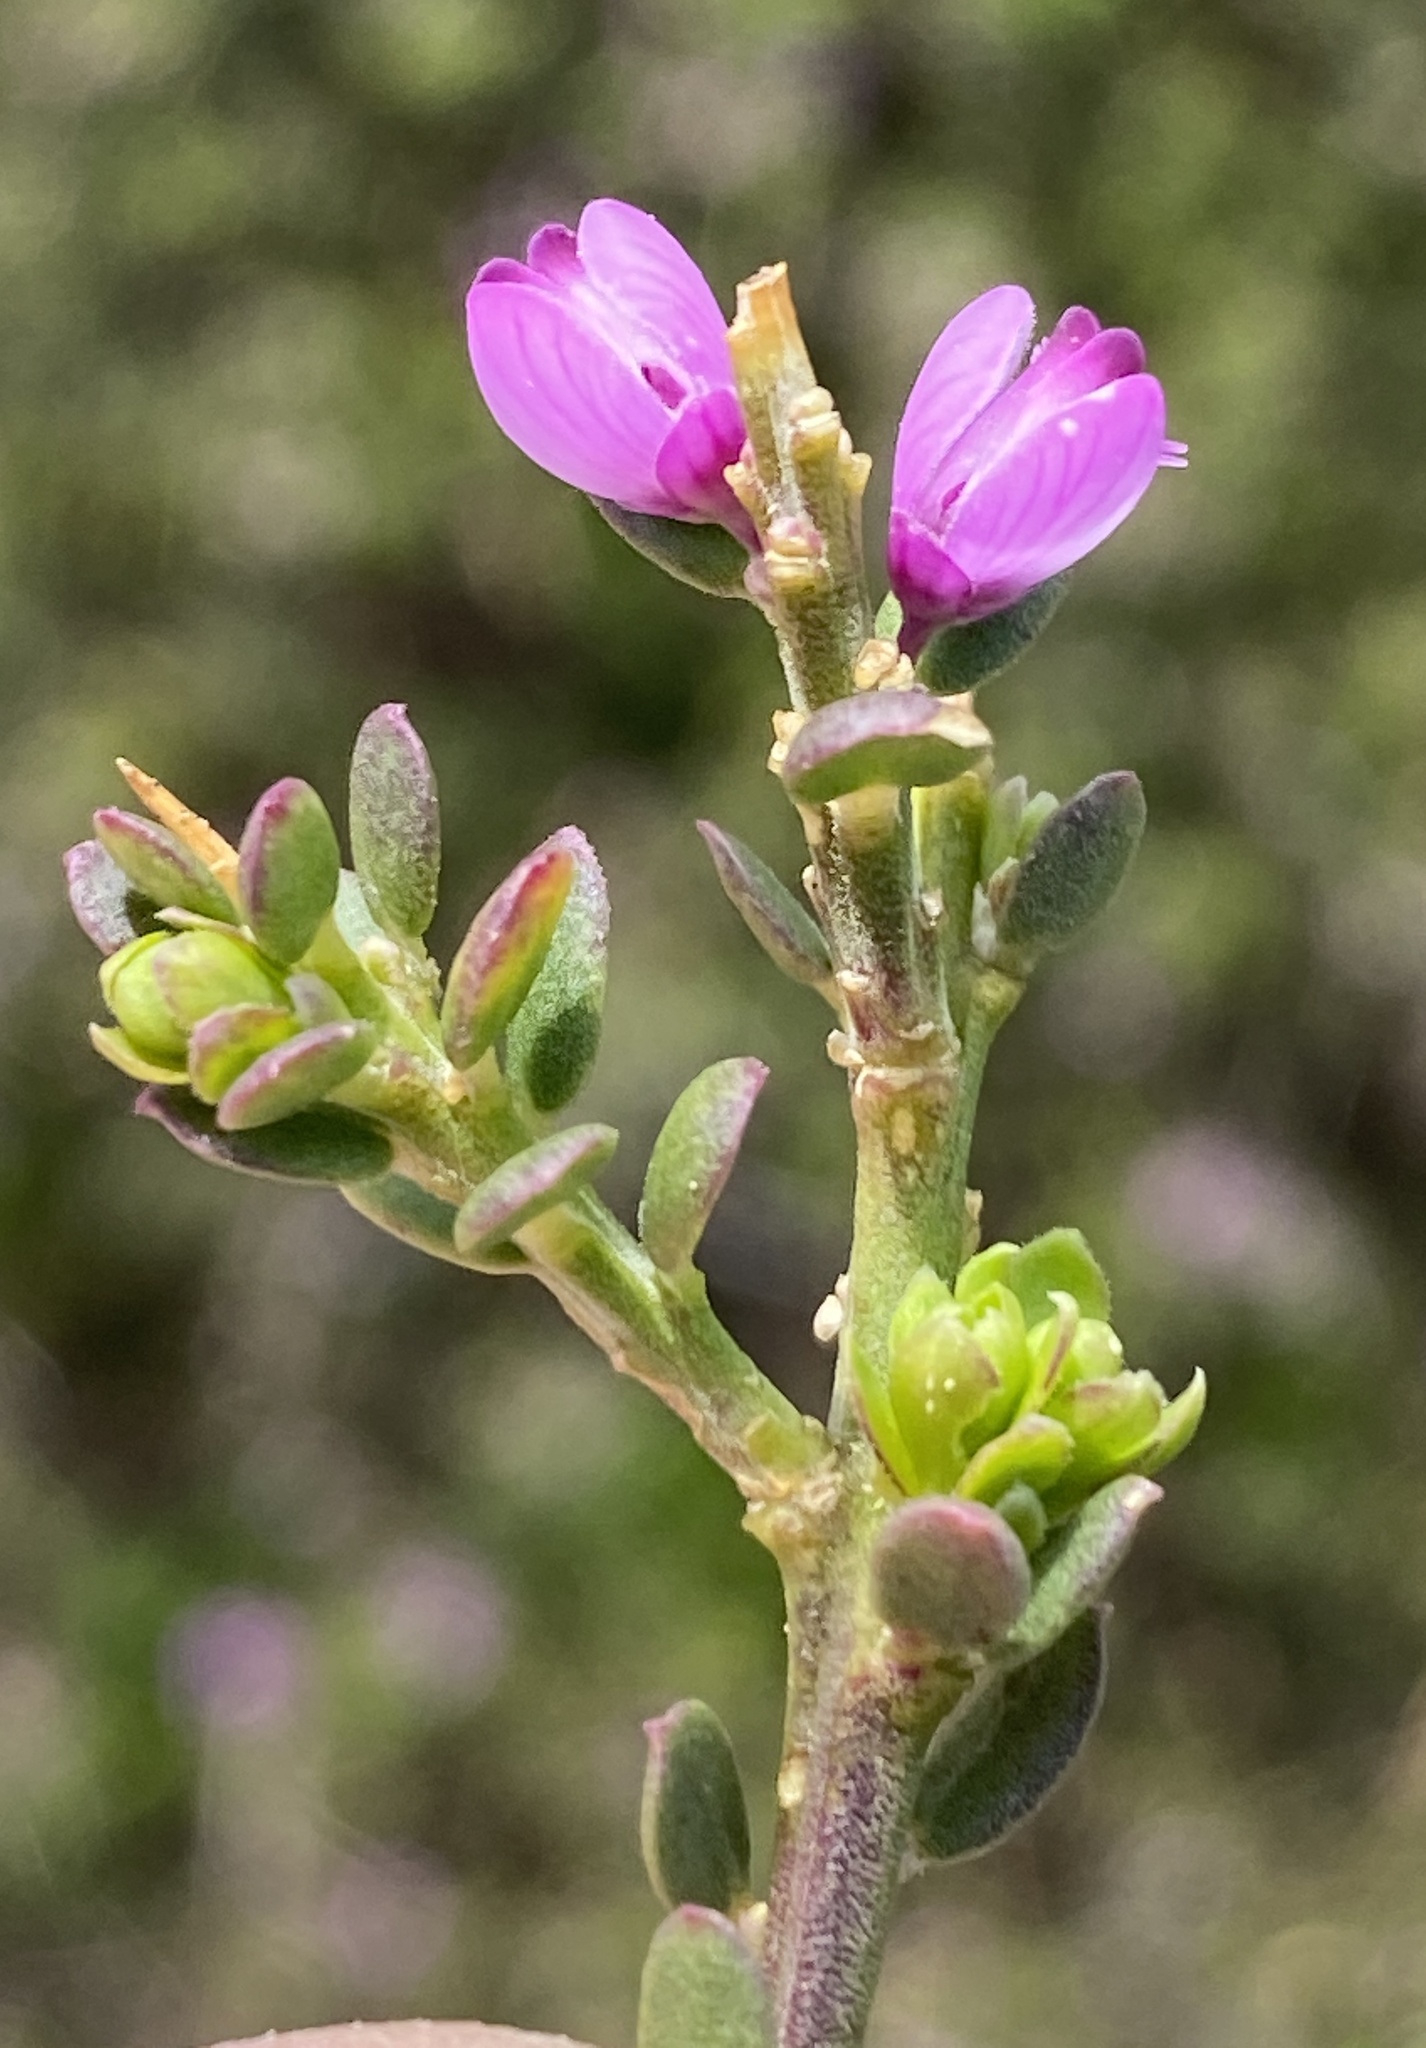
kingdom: Plantae
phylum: Tracheophyta
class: Magnoliopsida
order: Fabales
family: Polygalaceae
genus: Muraltia
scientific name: Muraltia spinosa
